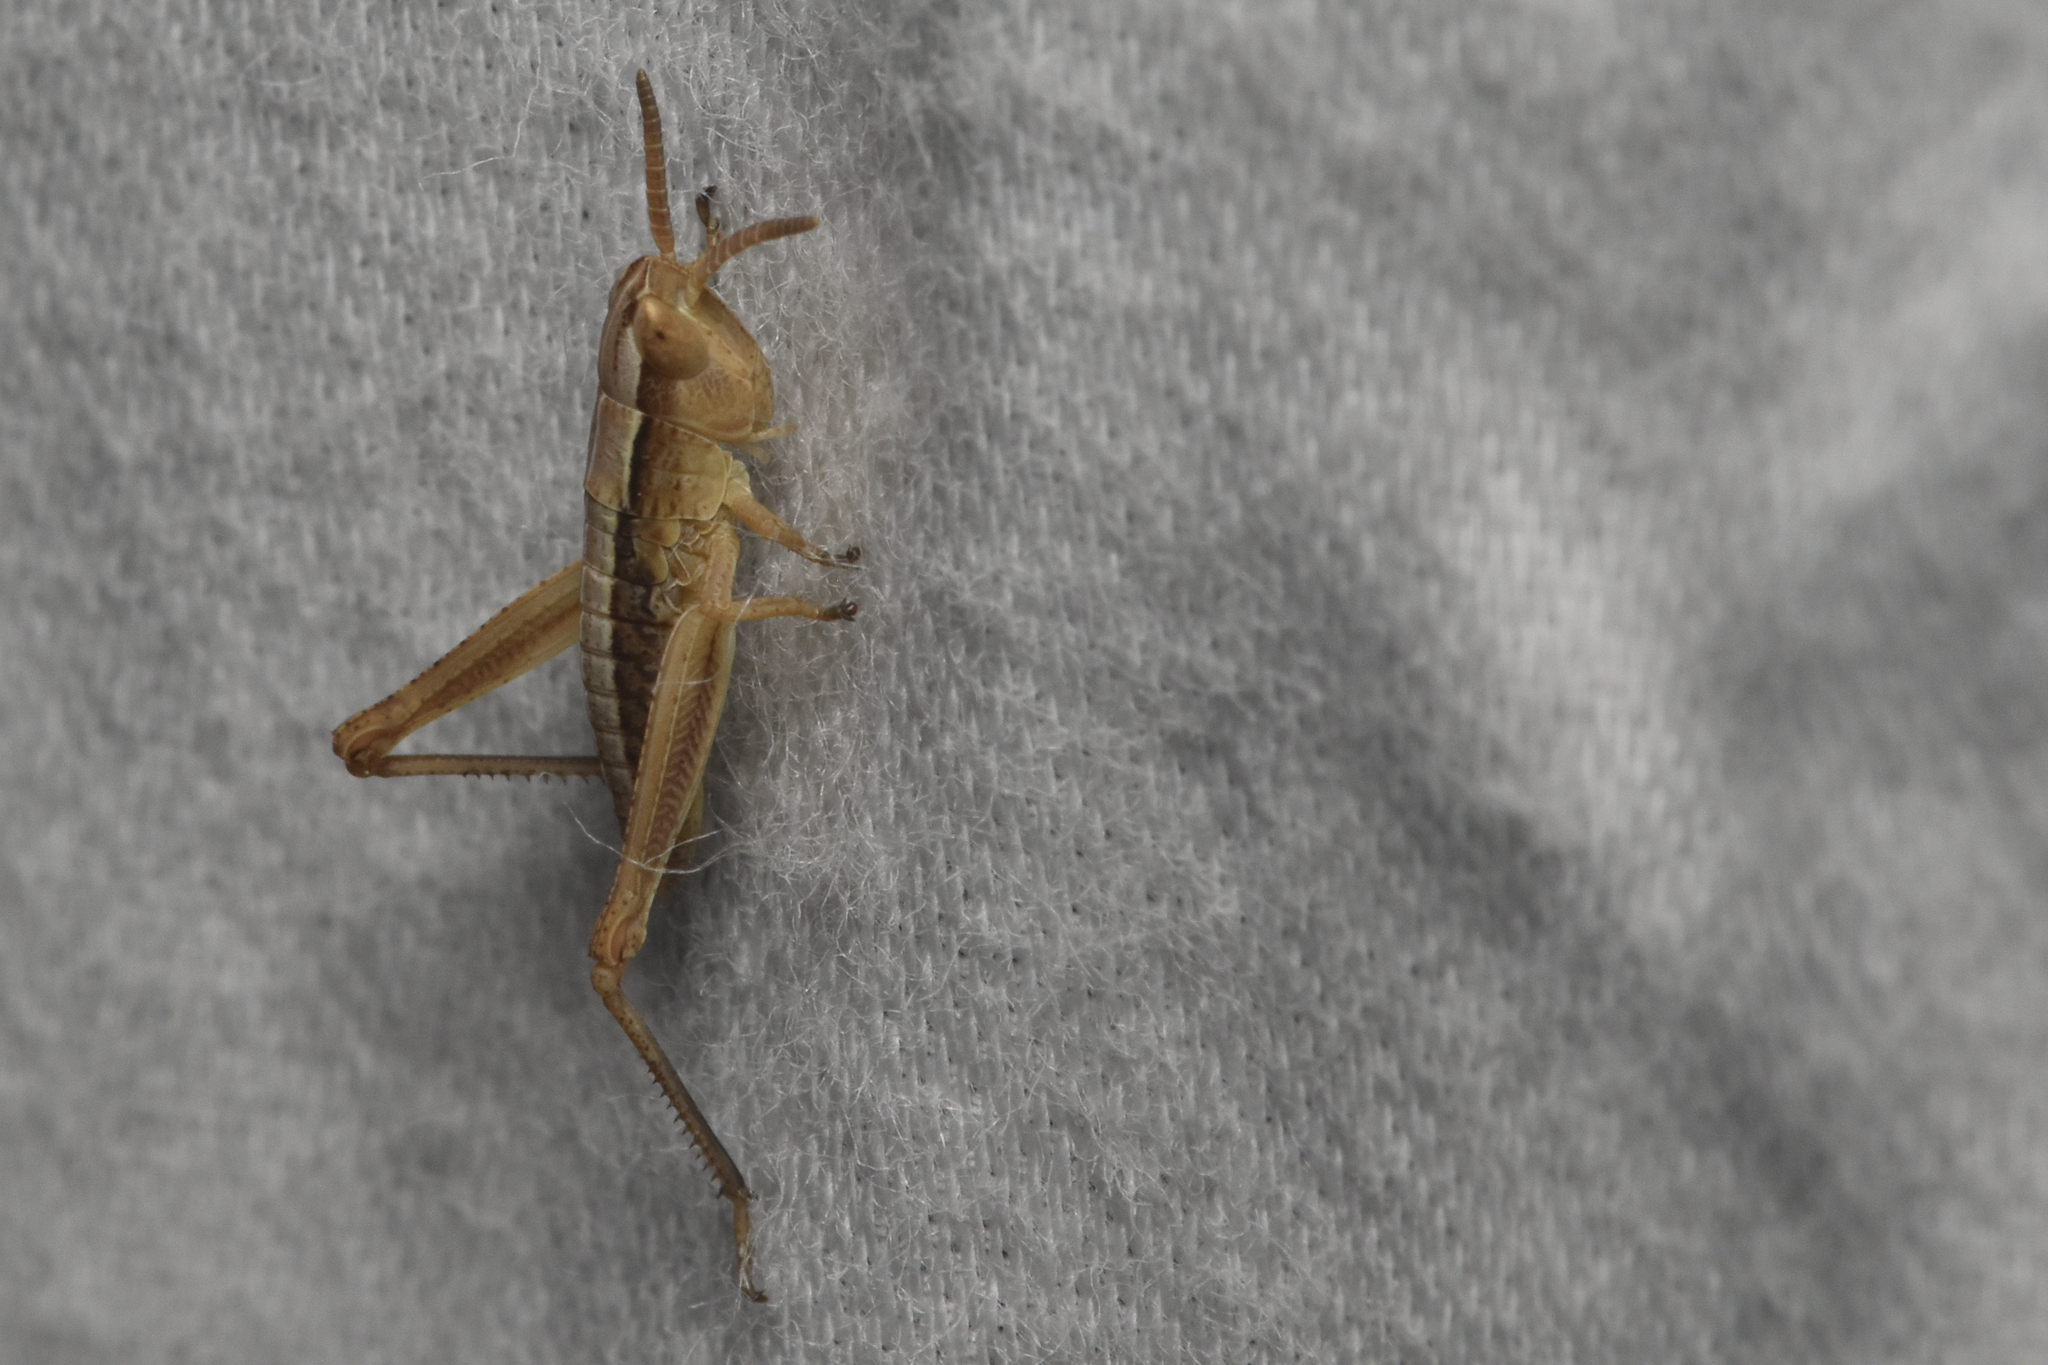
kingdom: Animalia
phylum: Arthropoda
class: Insecta
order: Orthoptera
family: Acrididae
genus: Pseudochorthippus
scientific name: Pseudochorthippus curtipennis
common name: Marsh meadow grasshopper
